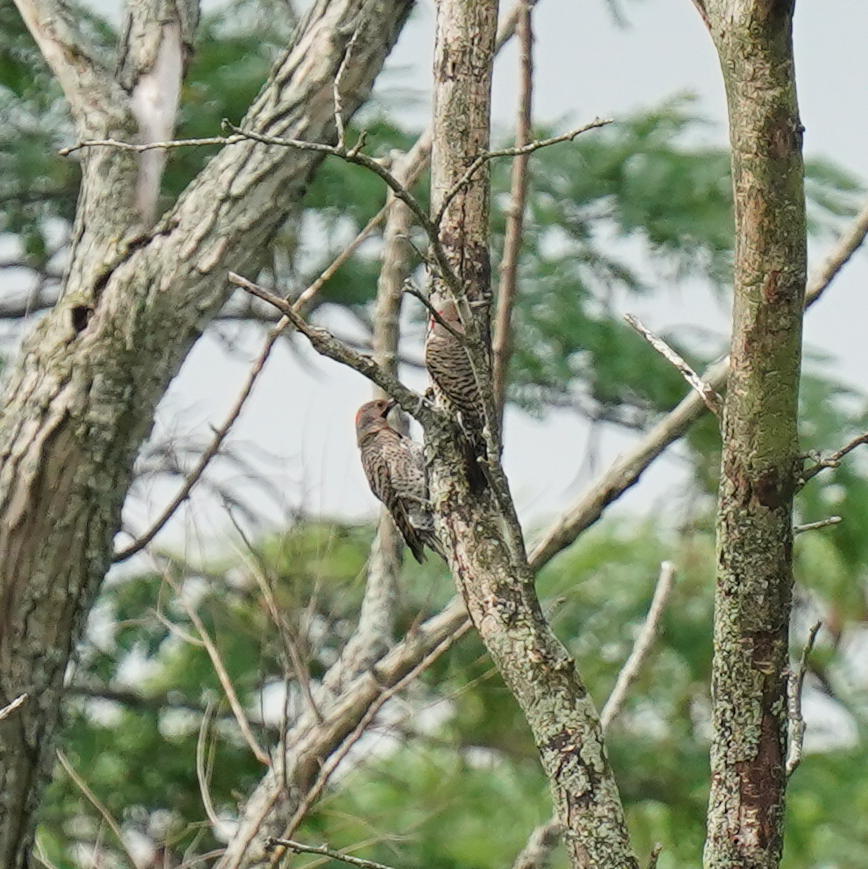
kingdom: Animalia
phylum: Chordata
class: Aves
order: Piciformes
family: Picidae
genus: Colaptes
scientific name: Colaptes auratus
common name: Northern flicker
